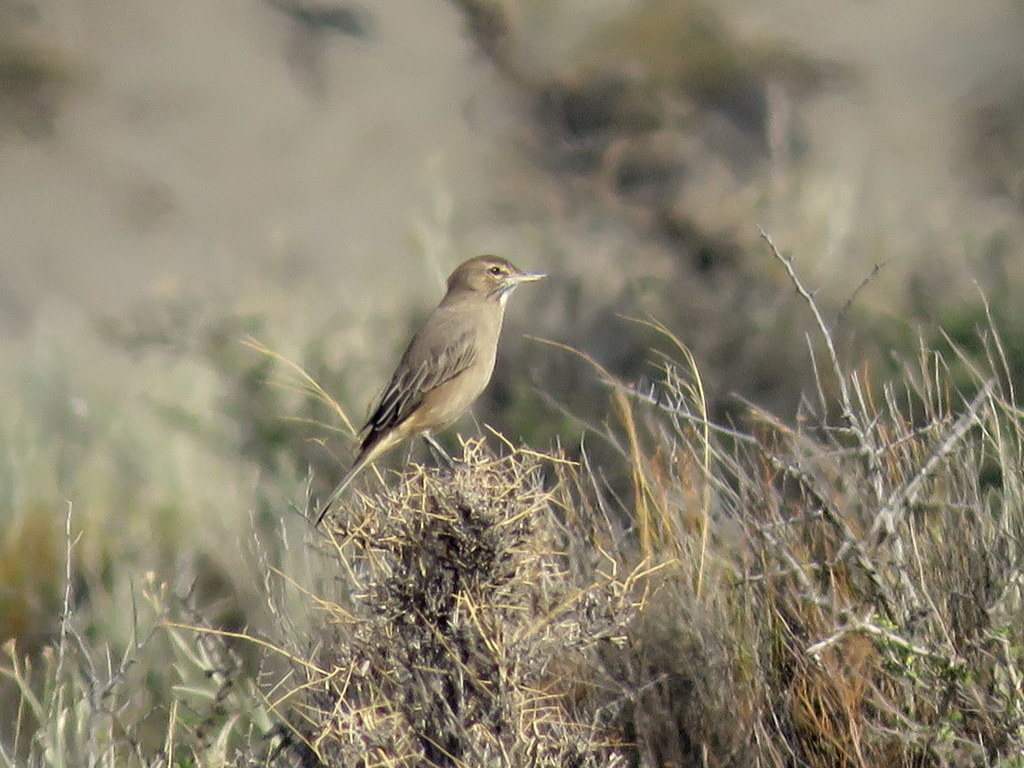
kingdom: Animalia
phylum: Chordata
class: Aves
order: Passeriformes
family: Tyrannidae
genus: Agriornis
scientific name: Agriornis micropterus
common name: Grey-bellied shrike-tyrant
